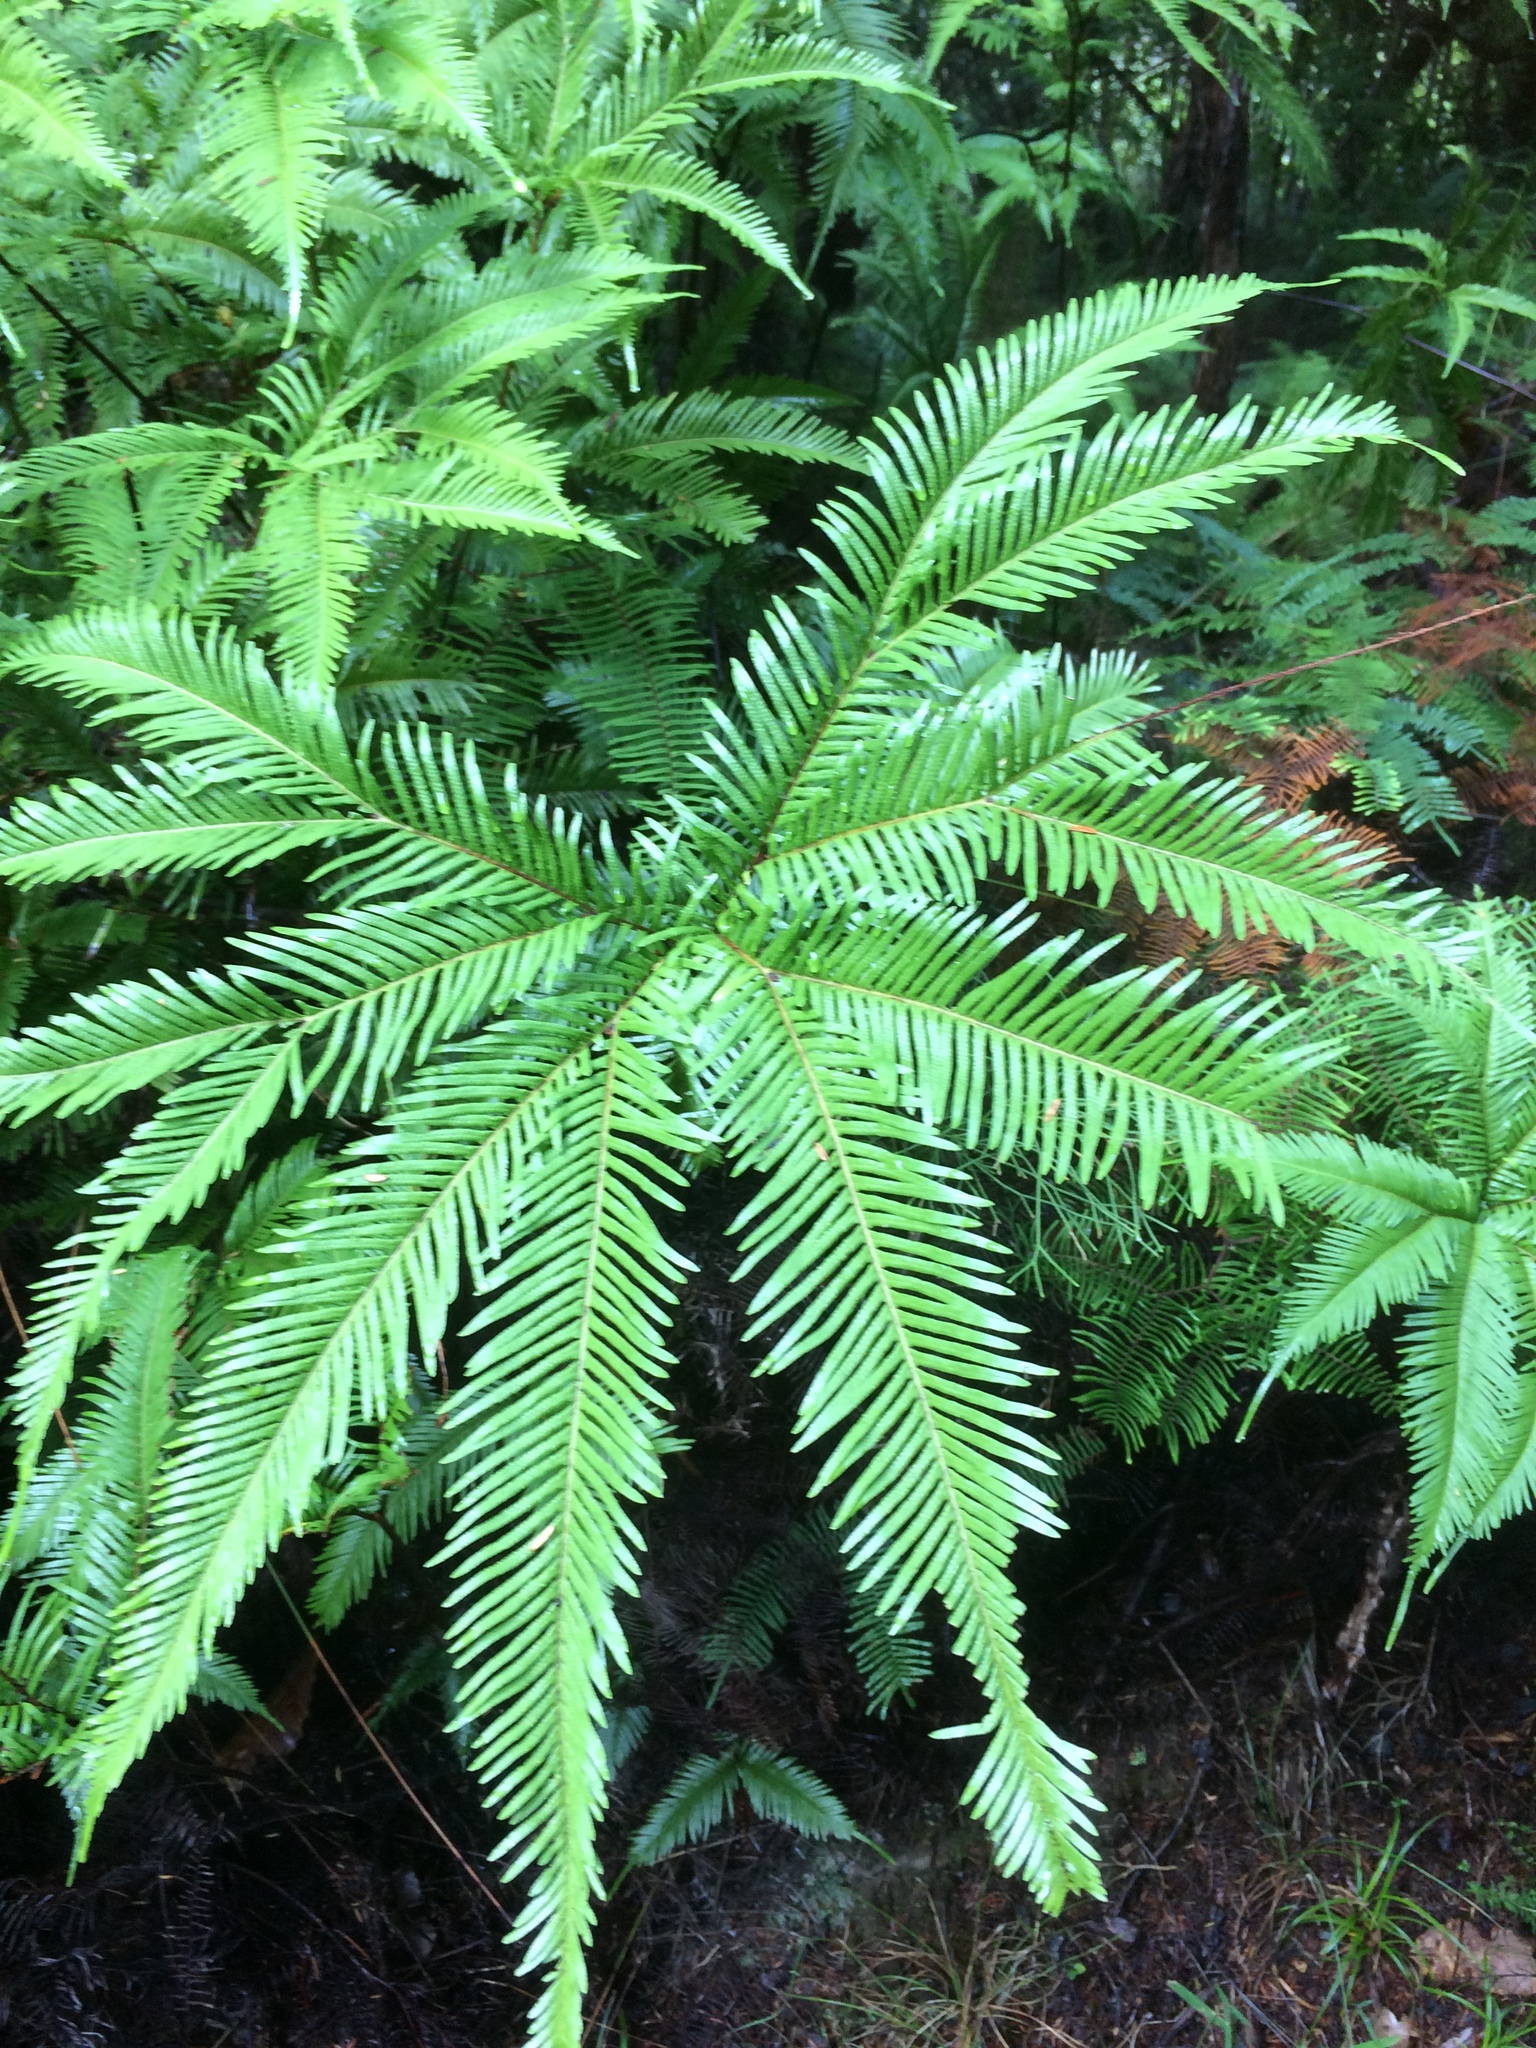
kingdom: Plantae
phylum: Tracheophyta
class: Polypodiopsida
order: Gleicheniales
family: Gleicheniaceae
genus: Sticherus
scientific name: Sticherus flabellatus
